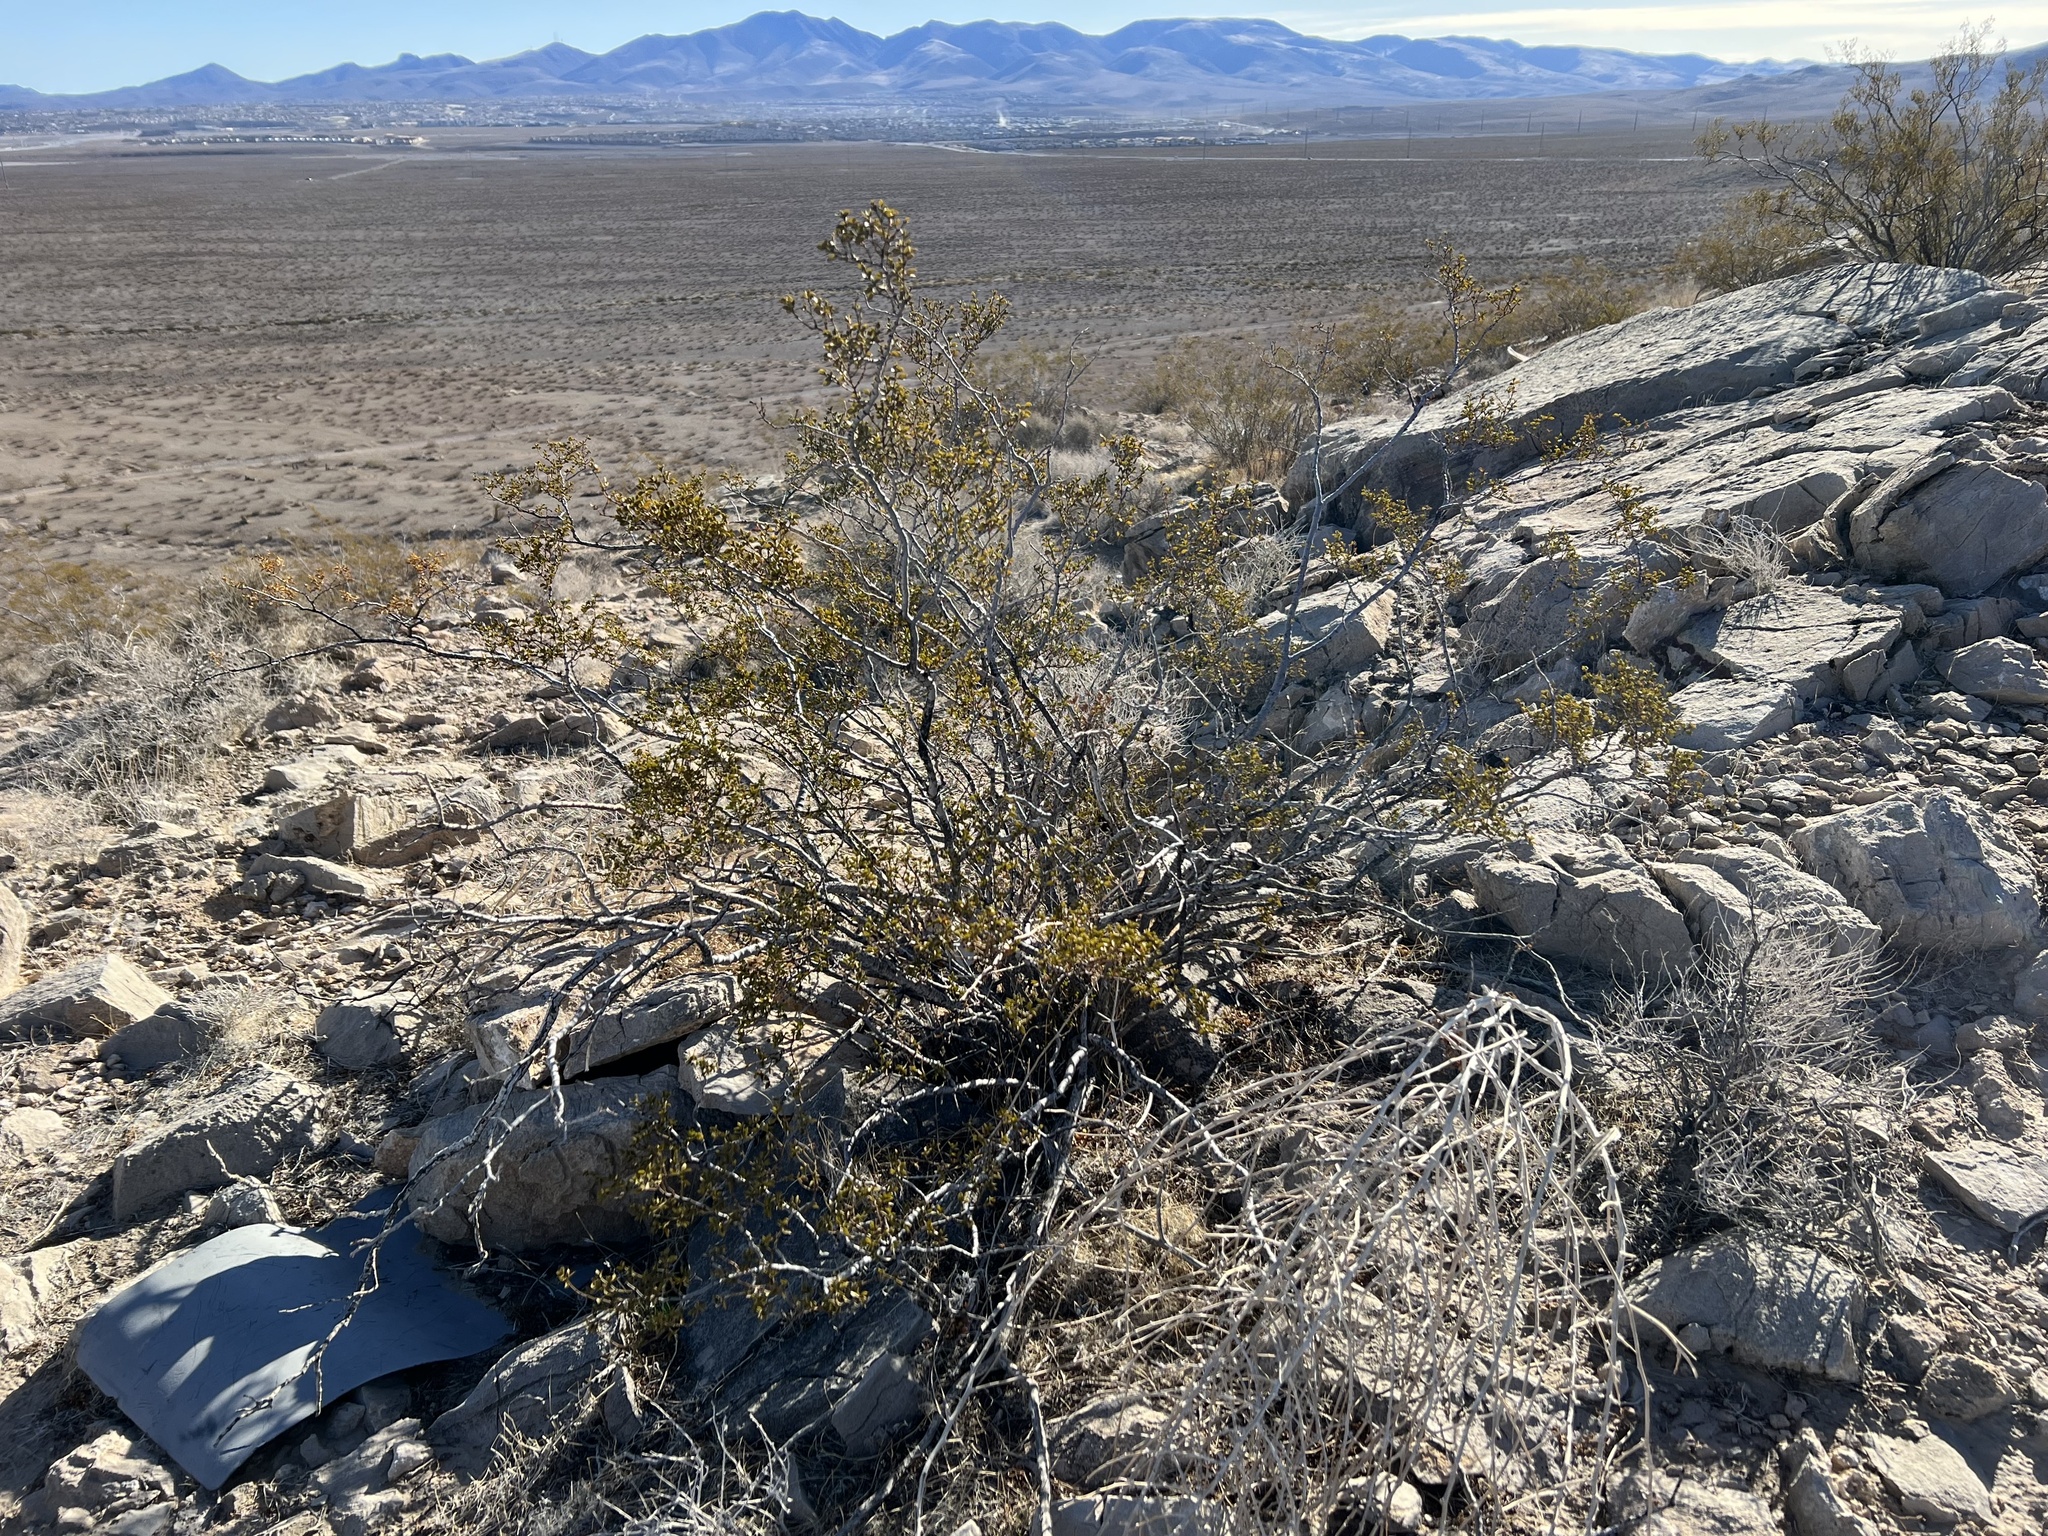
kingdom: Plantae
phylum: Tracheophyta
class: Magnoliopsida
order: Zygophyllales
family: Zygophyllaceae
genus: Larrea
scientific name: Larrea tridentata
